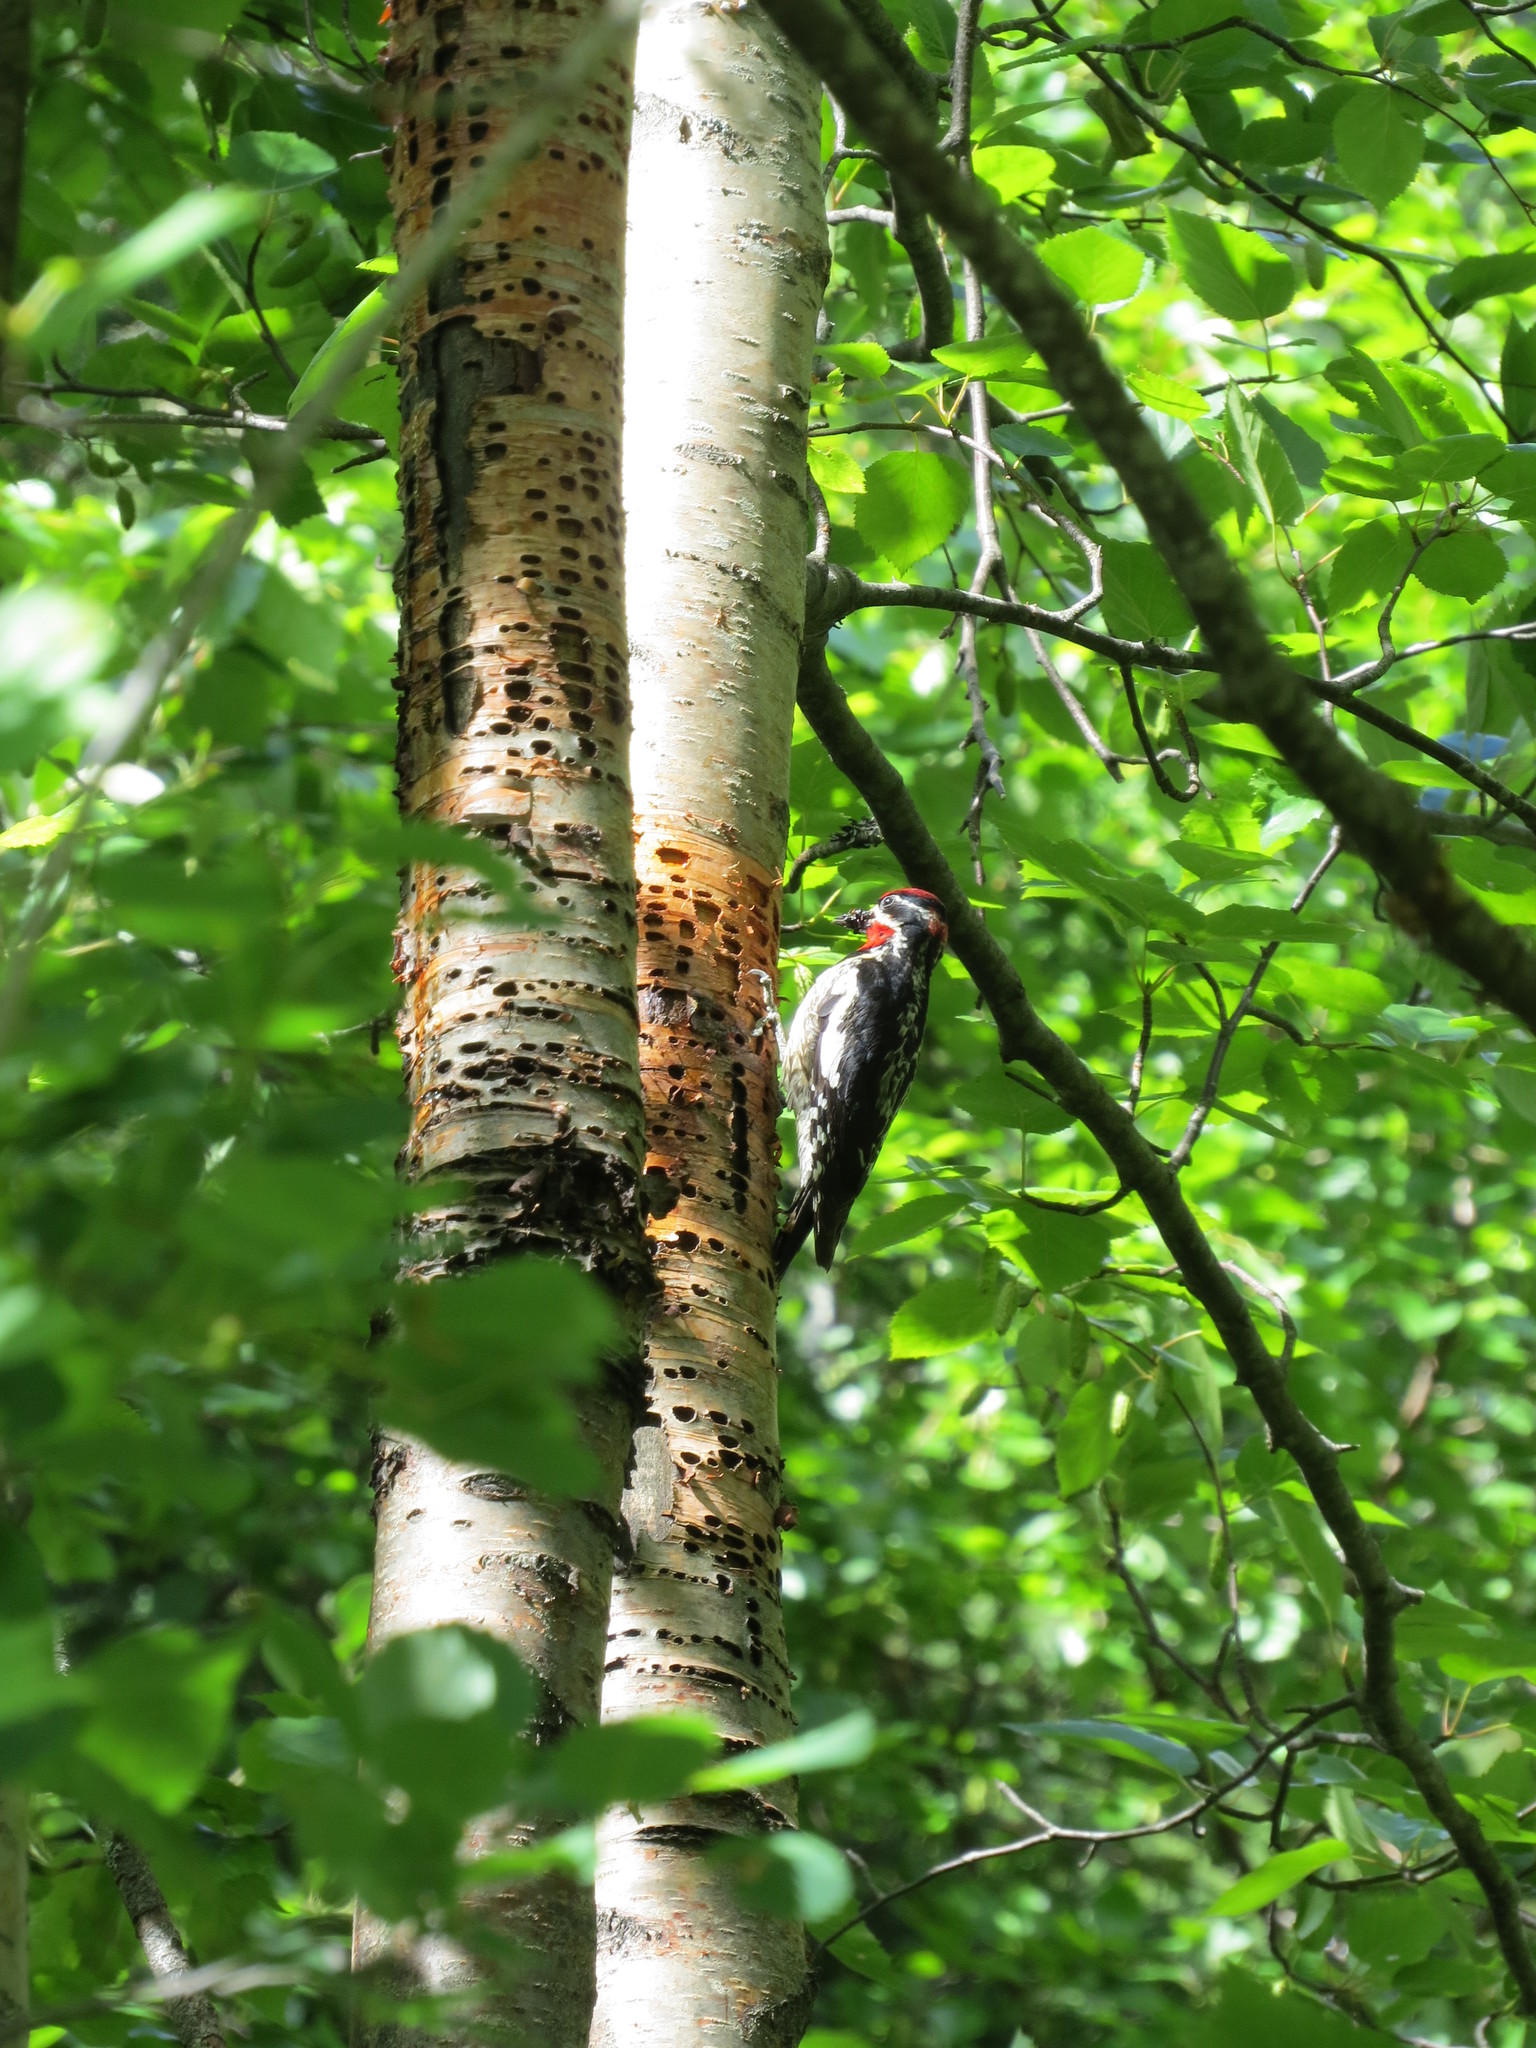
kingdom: Animalia
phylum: Chordata
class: Aves
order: Piciformes
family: Picidae
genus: Sphyrapicus
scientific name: Sphyrapicus nuchalis
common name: Red-naped sapsucker
